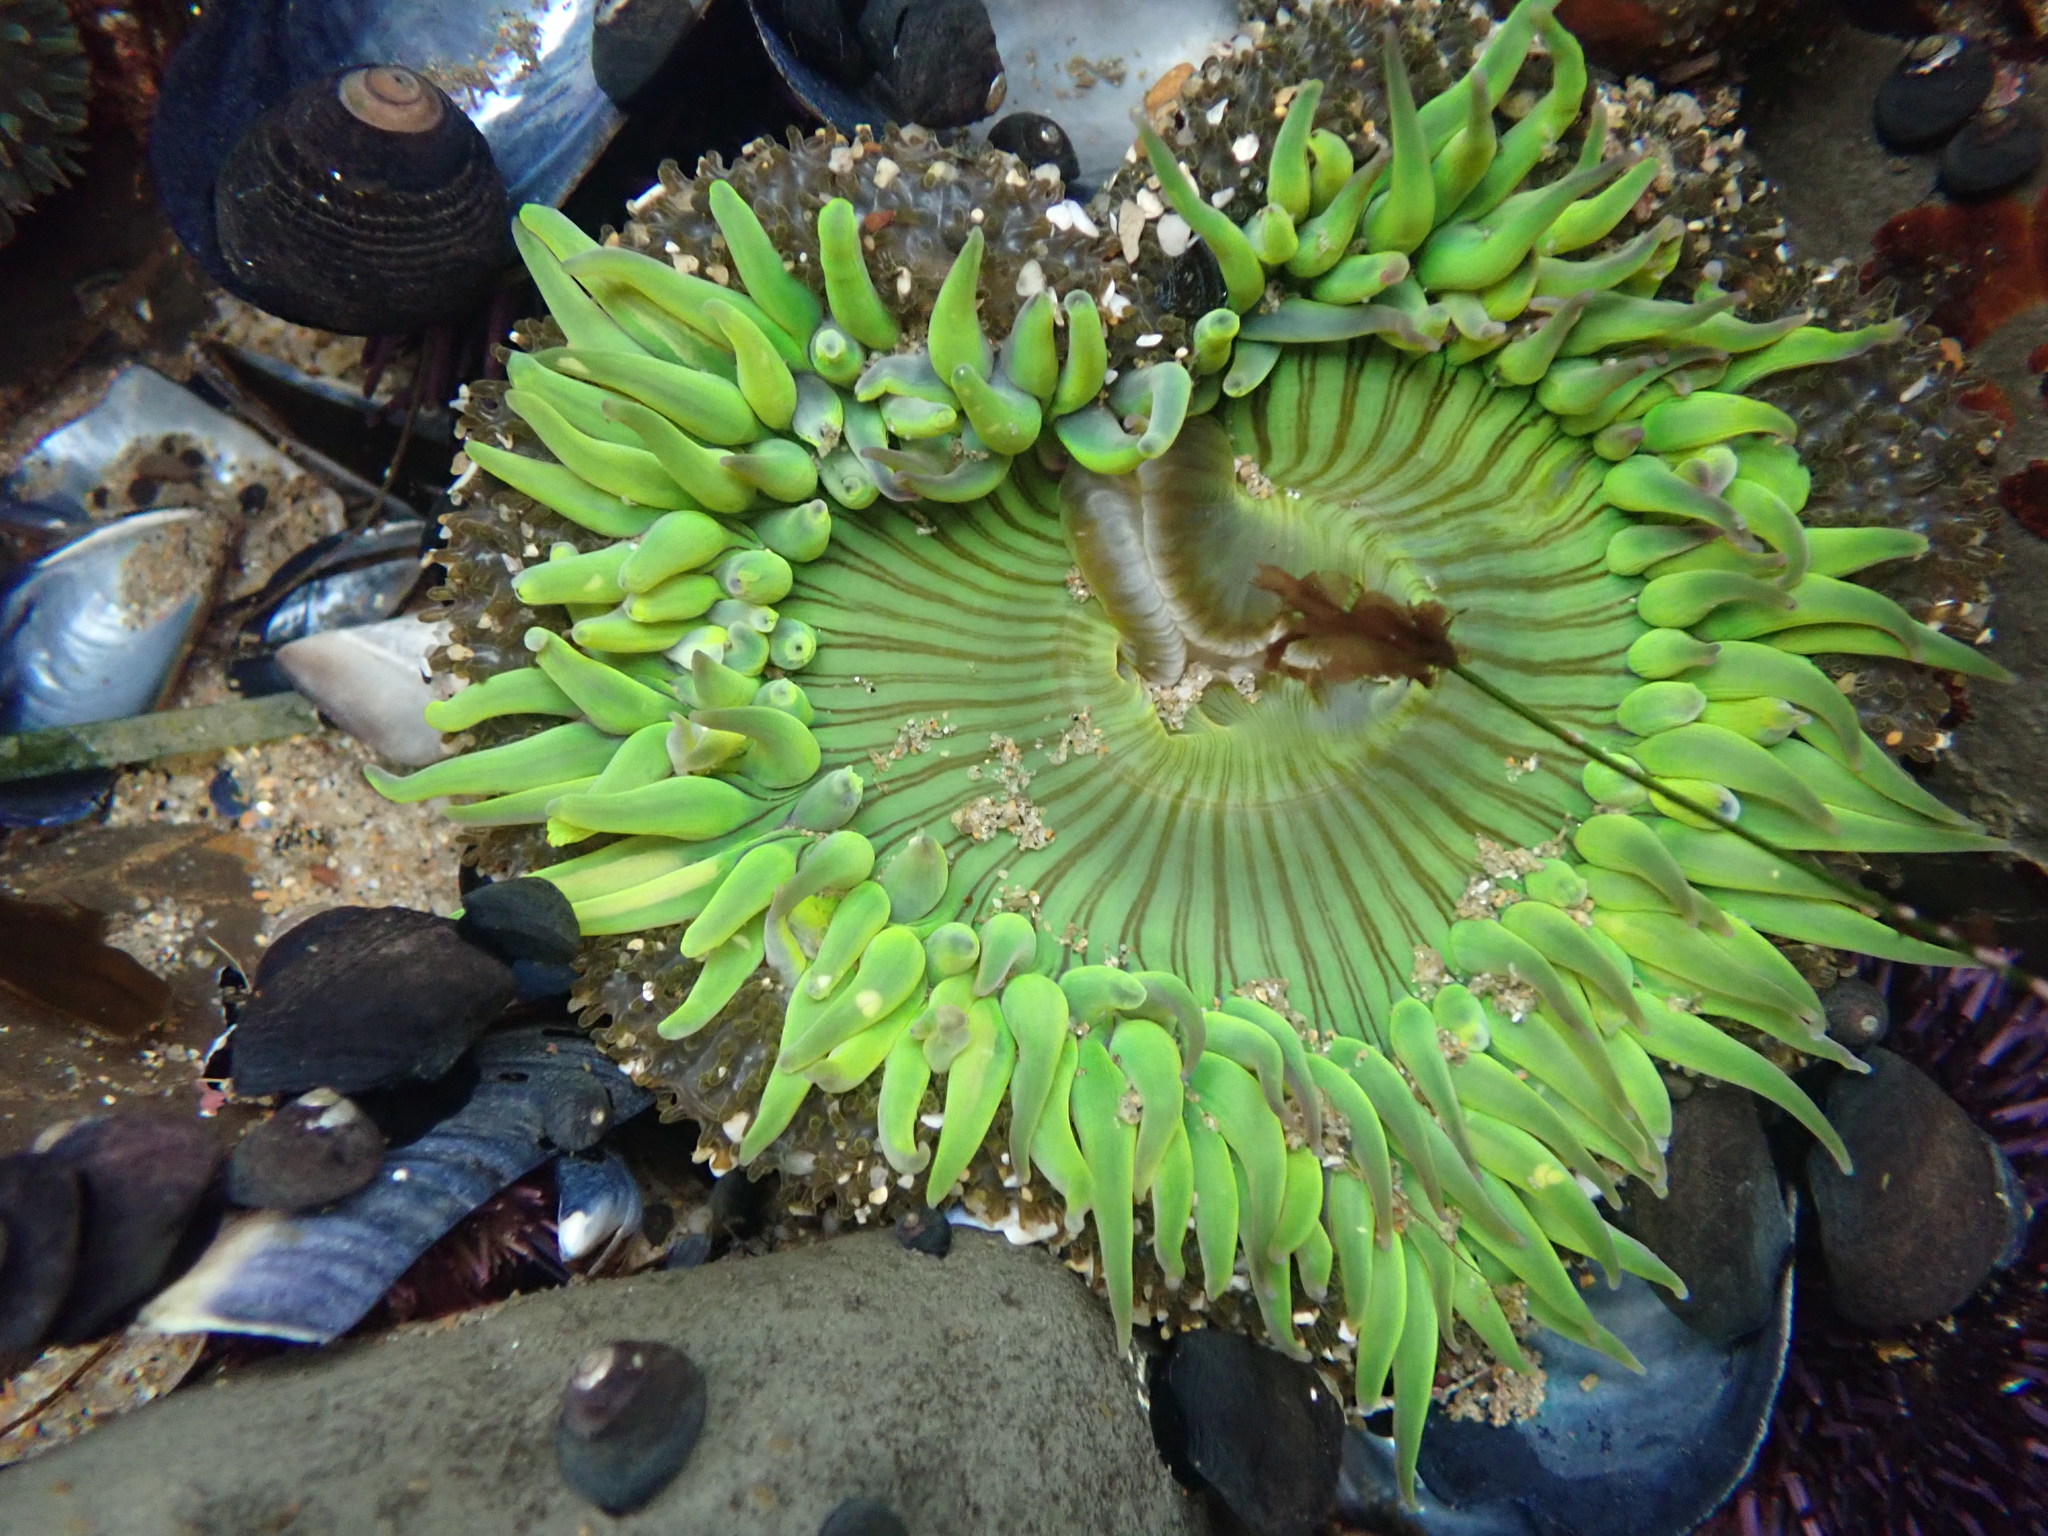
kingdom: Animalia
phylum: Cnidaria
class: Anthozoa
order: Actiniaria
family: Actiniidae
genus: Anthopleura
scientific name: Anthopleura sola
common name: Sun anemone
